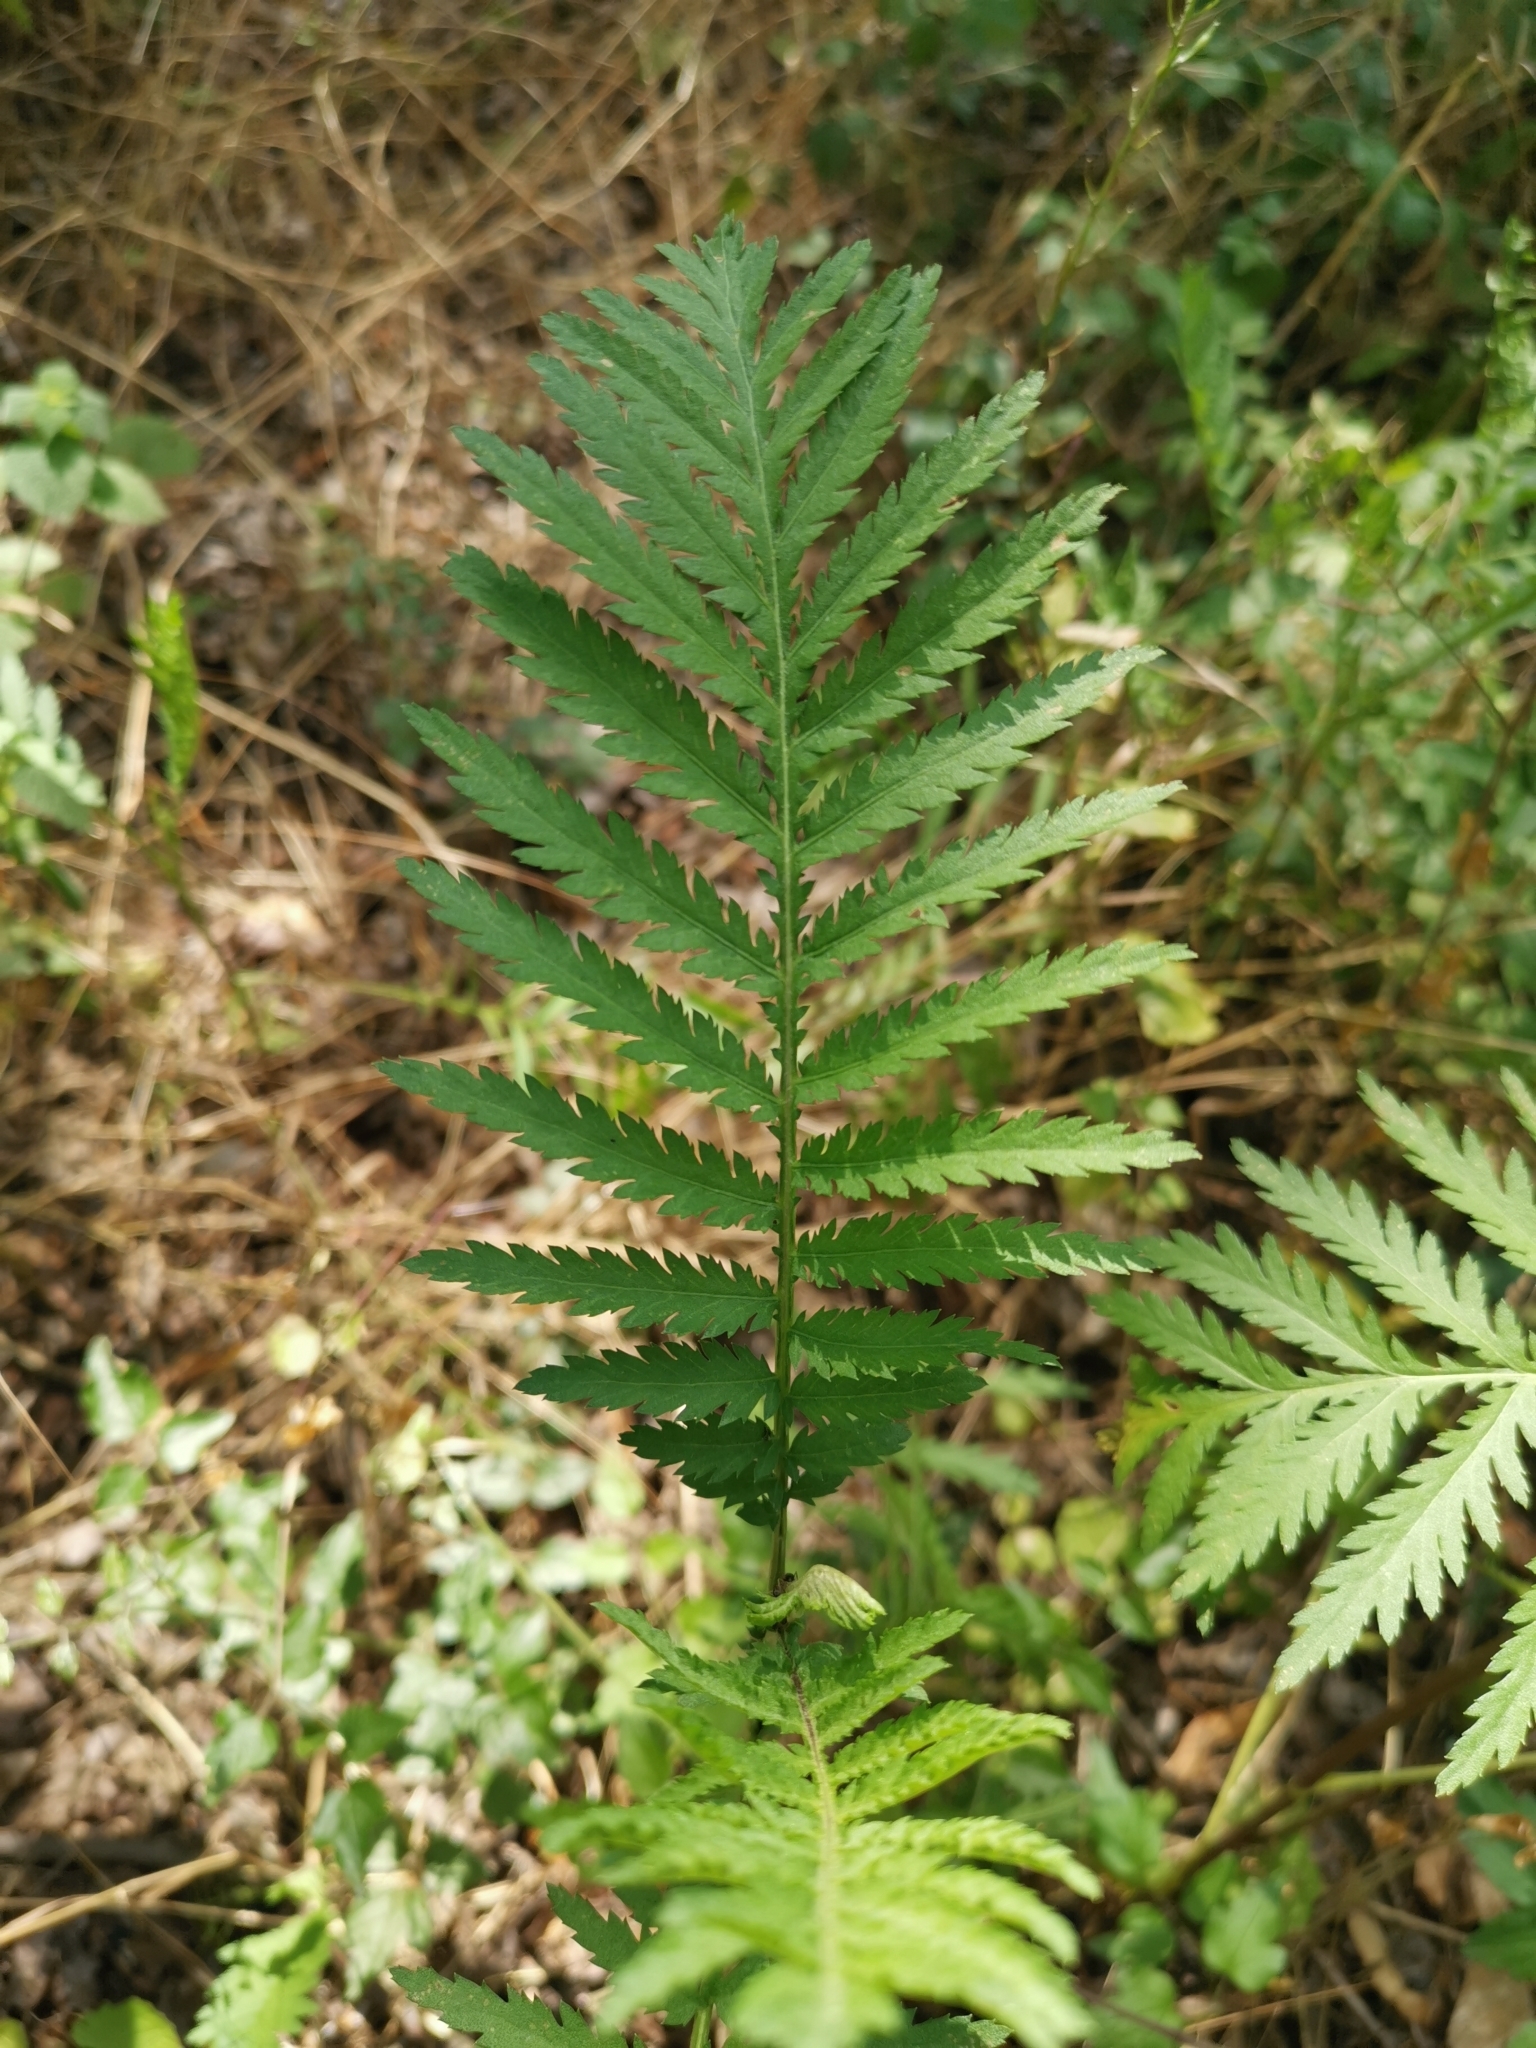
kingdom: Plantae
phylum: Tracheophyta
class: Magnoliopsida
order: Asterales
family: Asteraceae
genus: Tanacetum
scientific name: Tanacetum vulgare
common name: Common tansy
